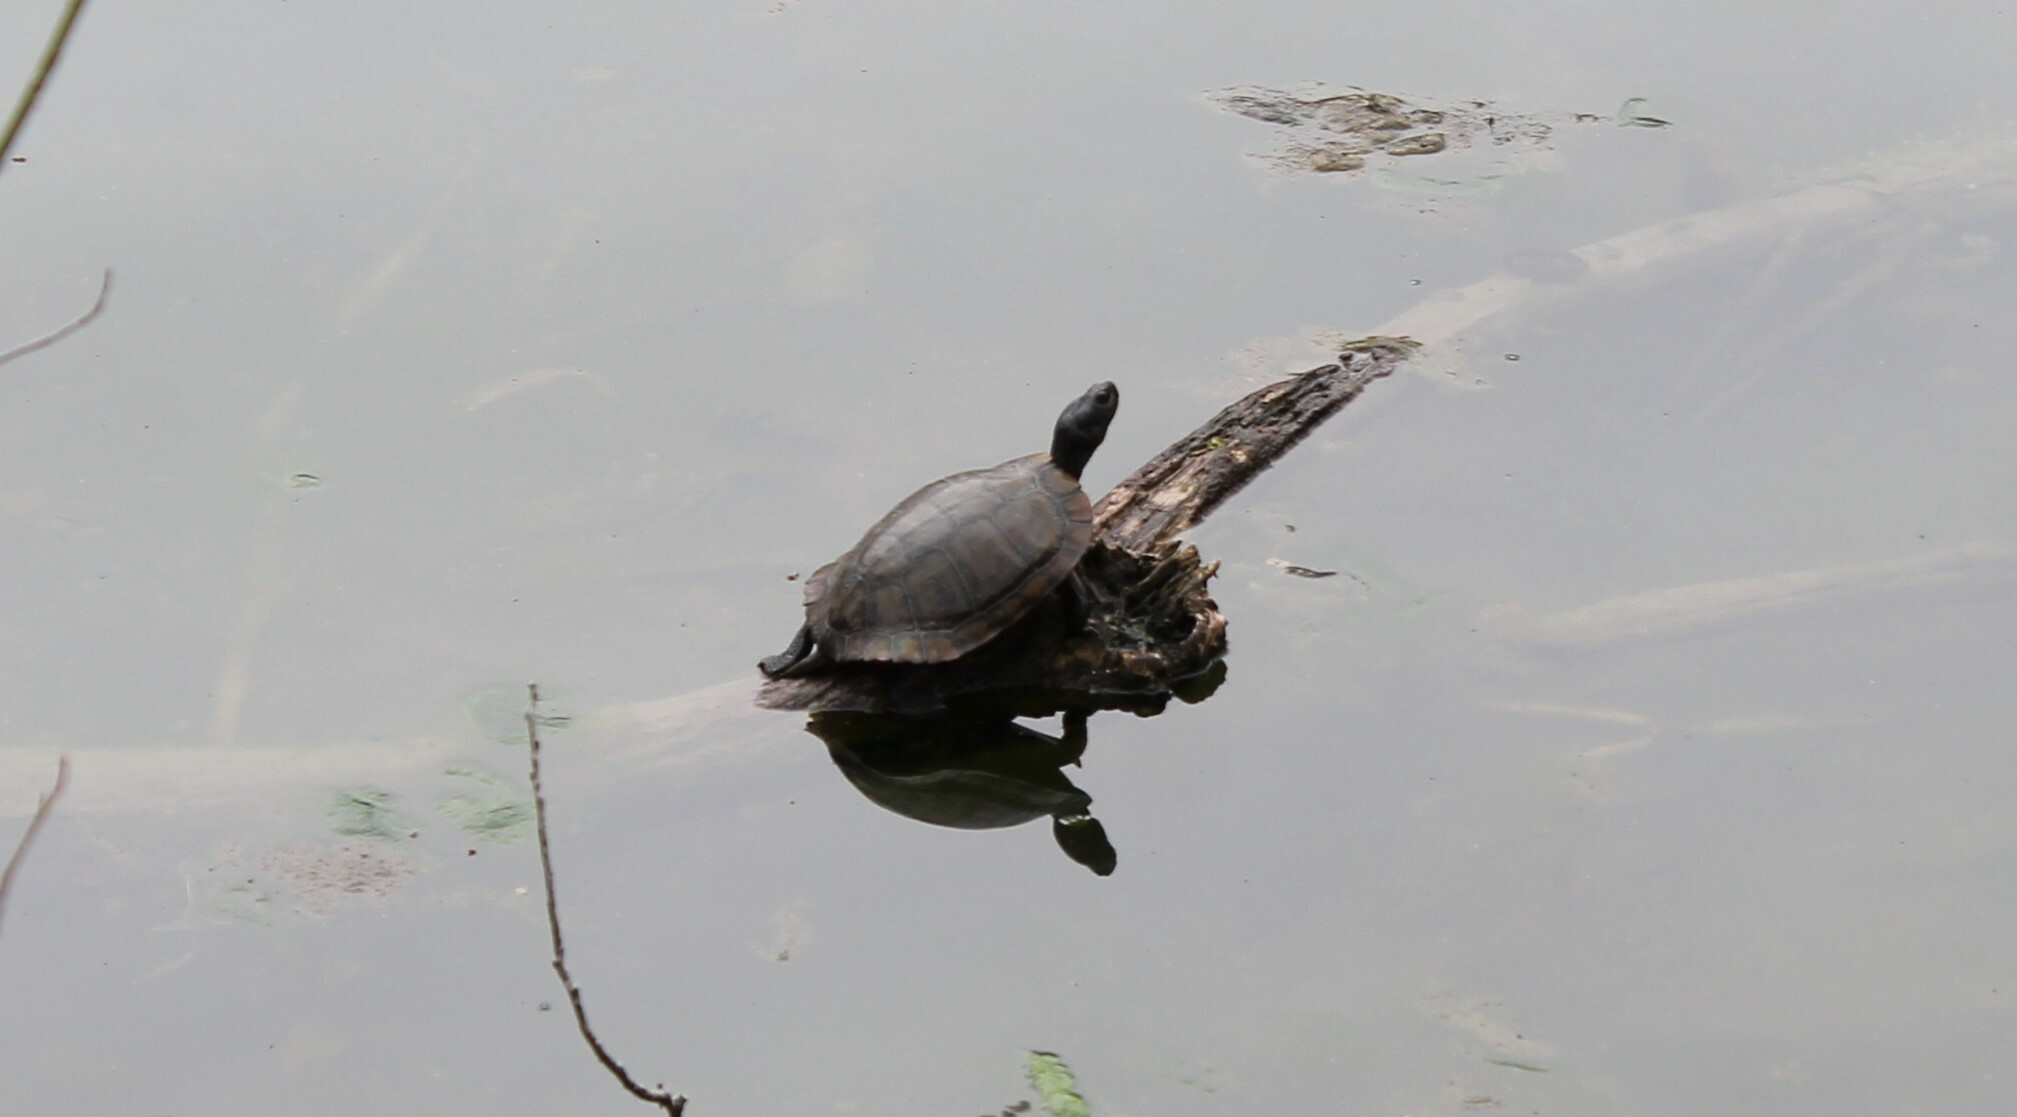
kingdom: Animalia
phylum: Chordata
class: Testudines
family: Emydidae
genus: Trachemys
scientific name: Trachemys scripta
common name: Slider
